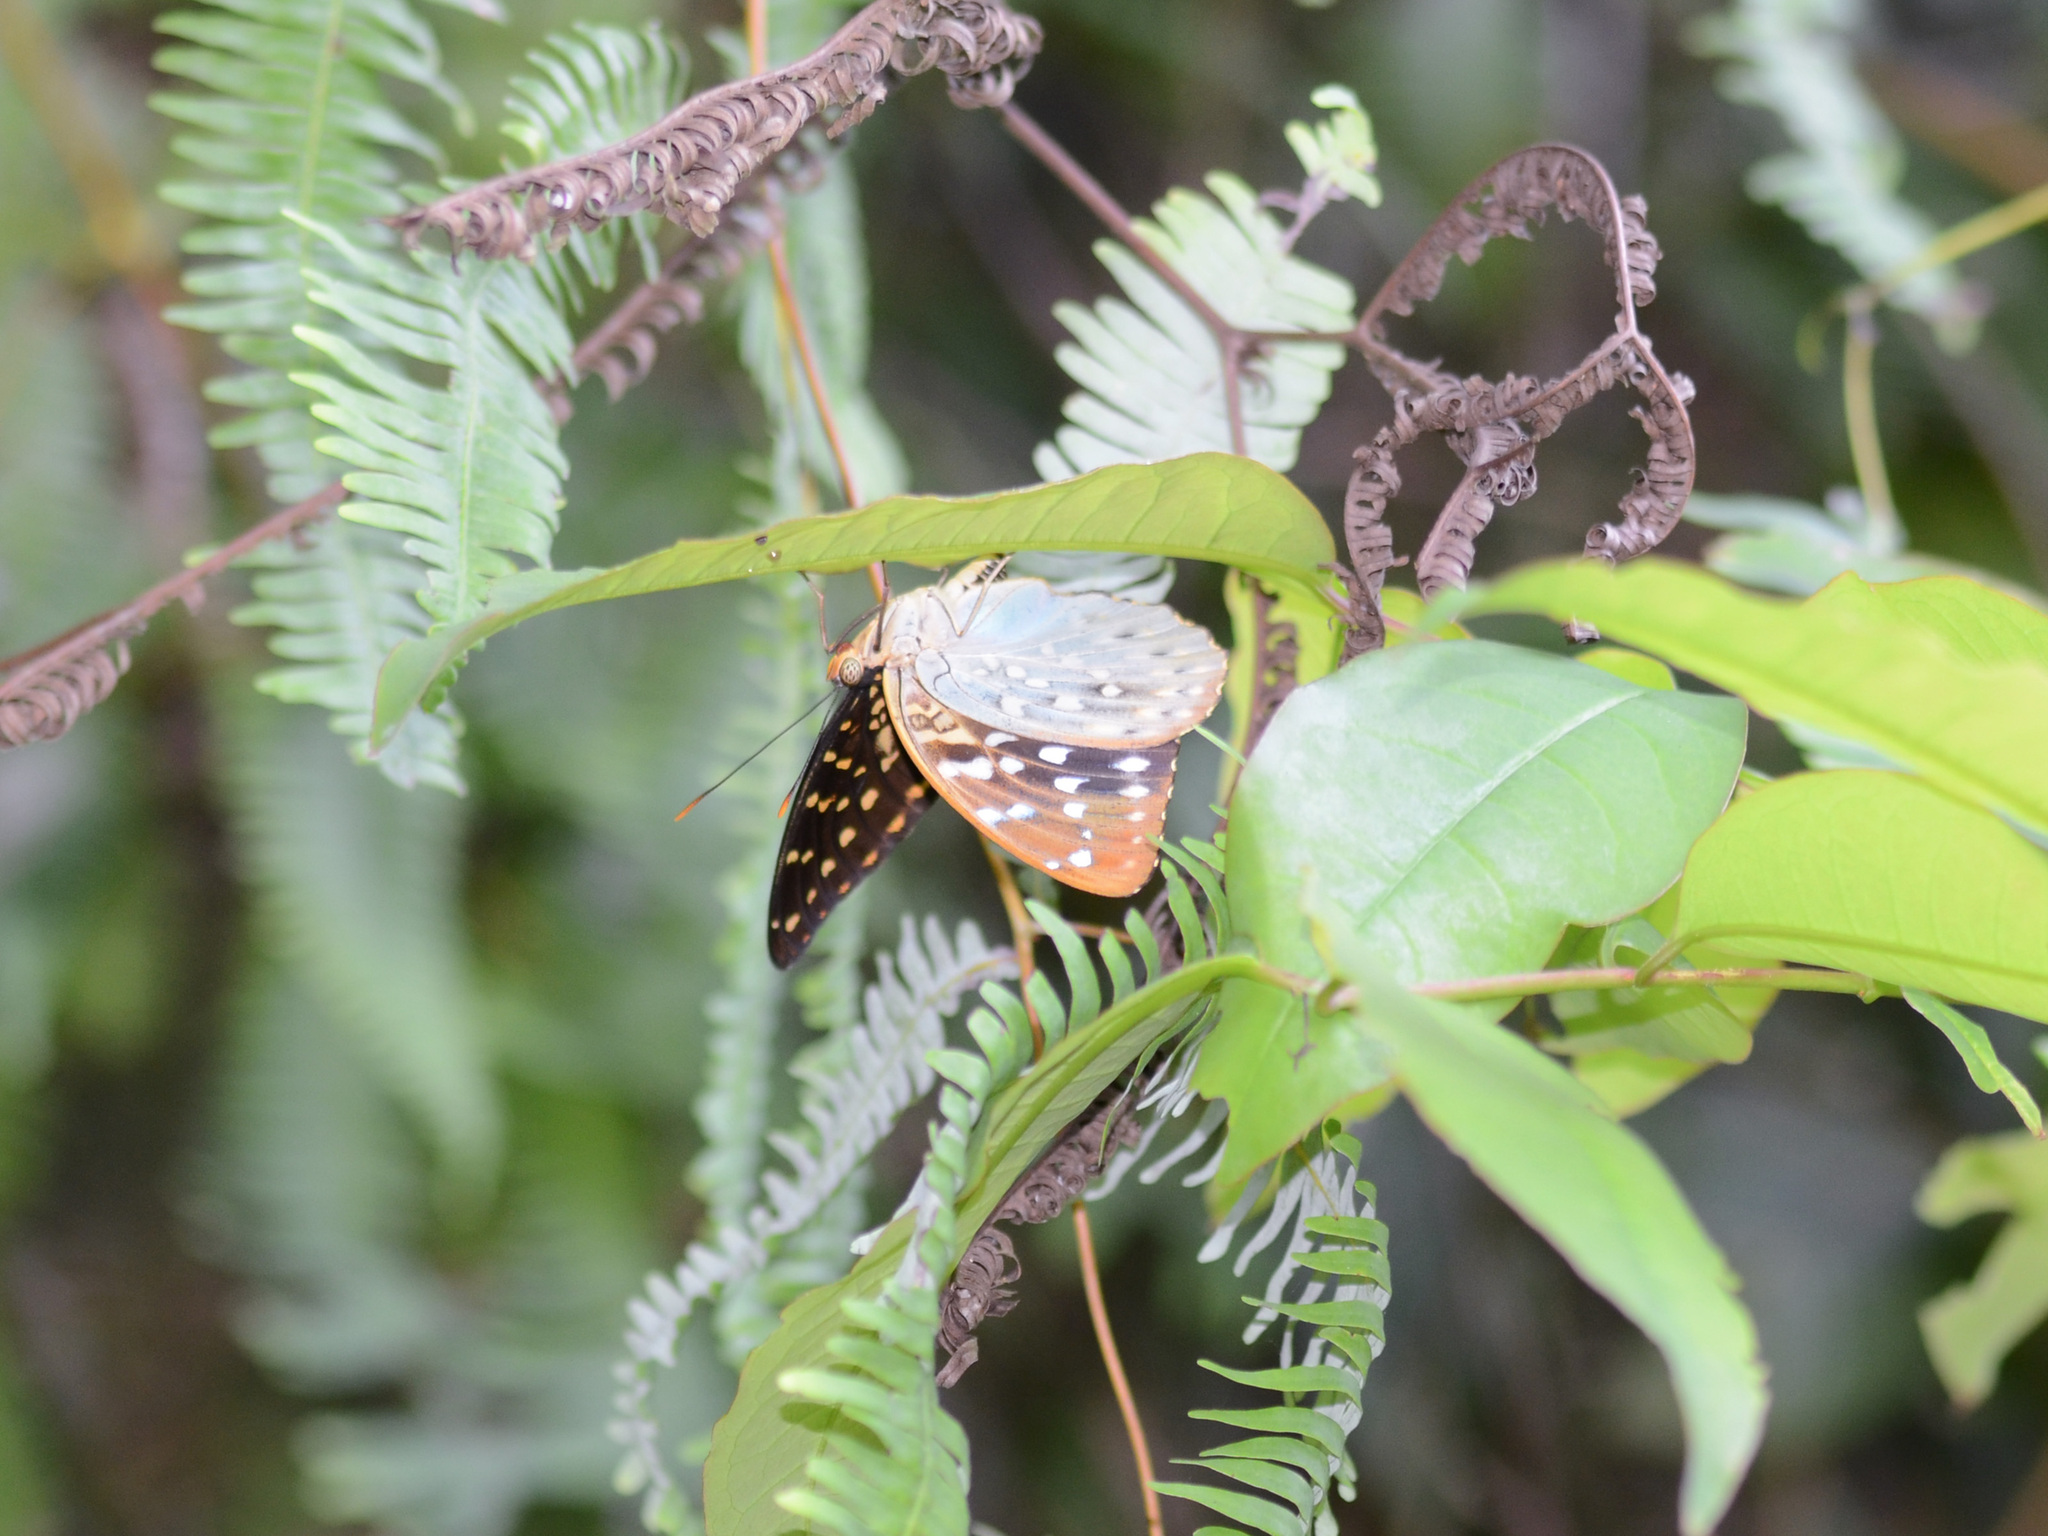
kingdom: Animalia
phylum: Arthropoda
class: Insecta
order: Lepidoptera
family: Nymphalidae
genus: Lexias
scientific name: Lexias pardalis
